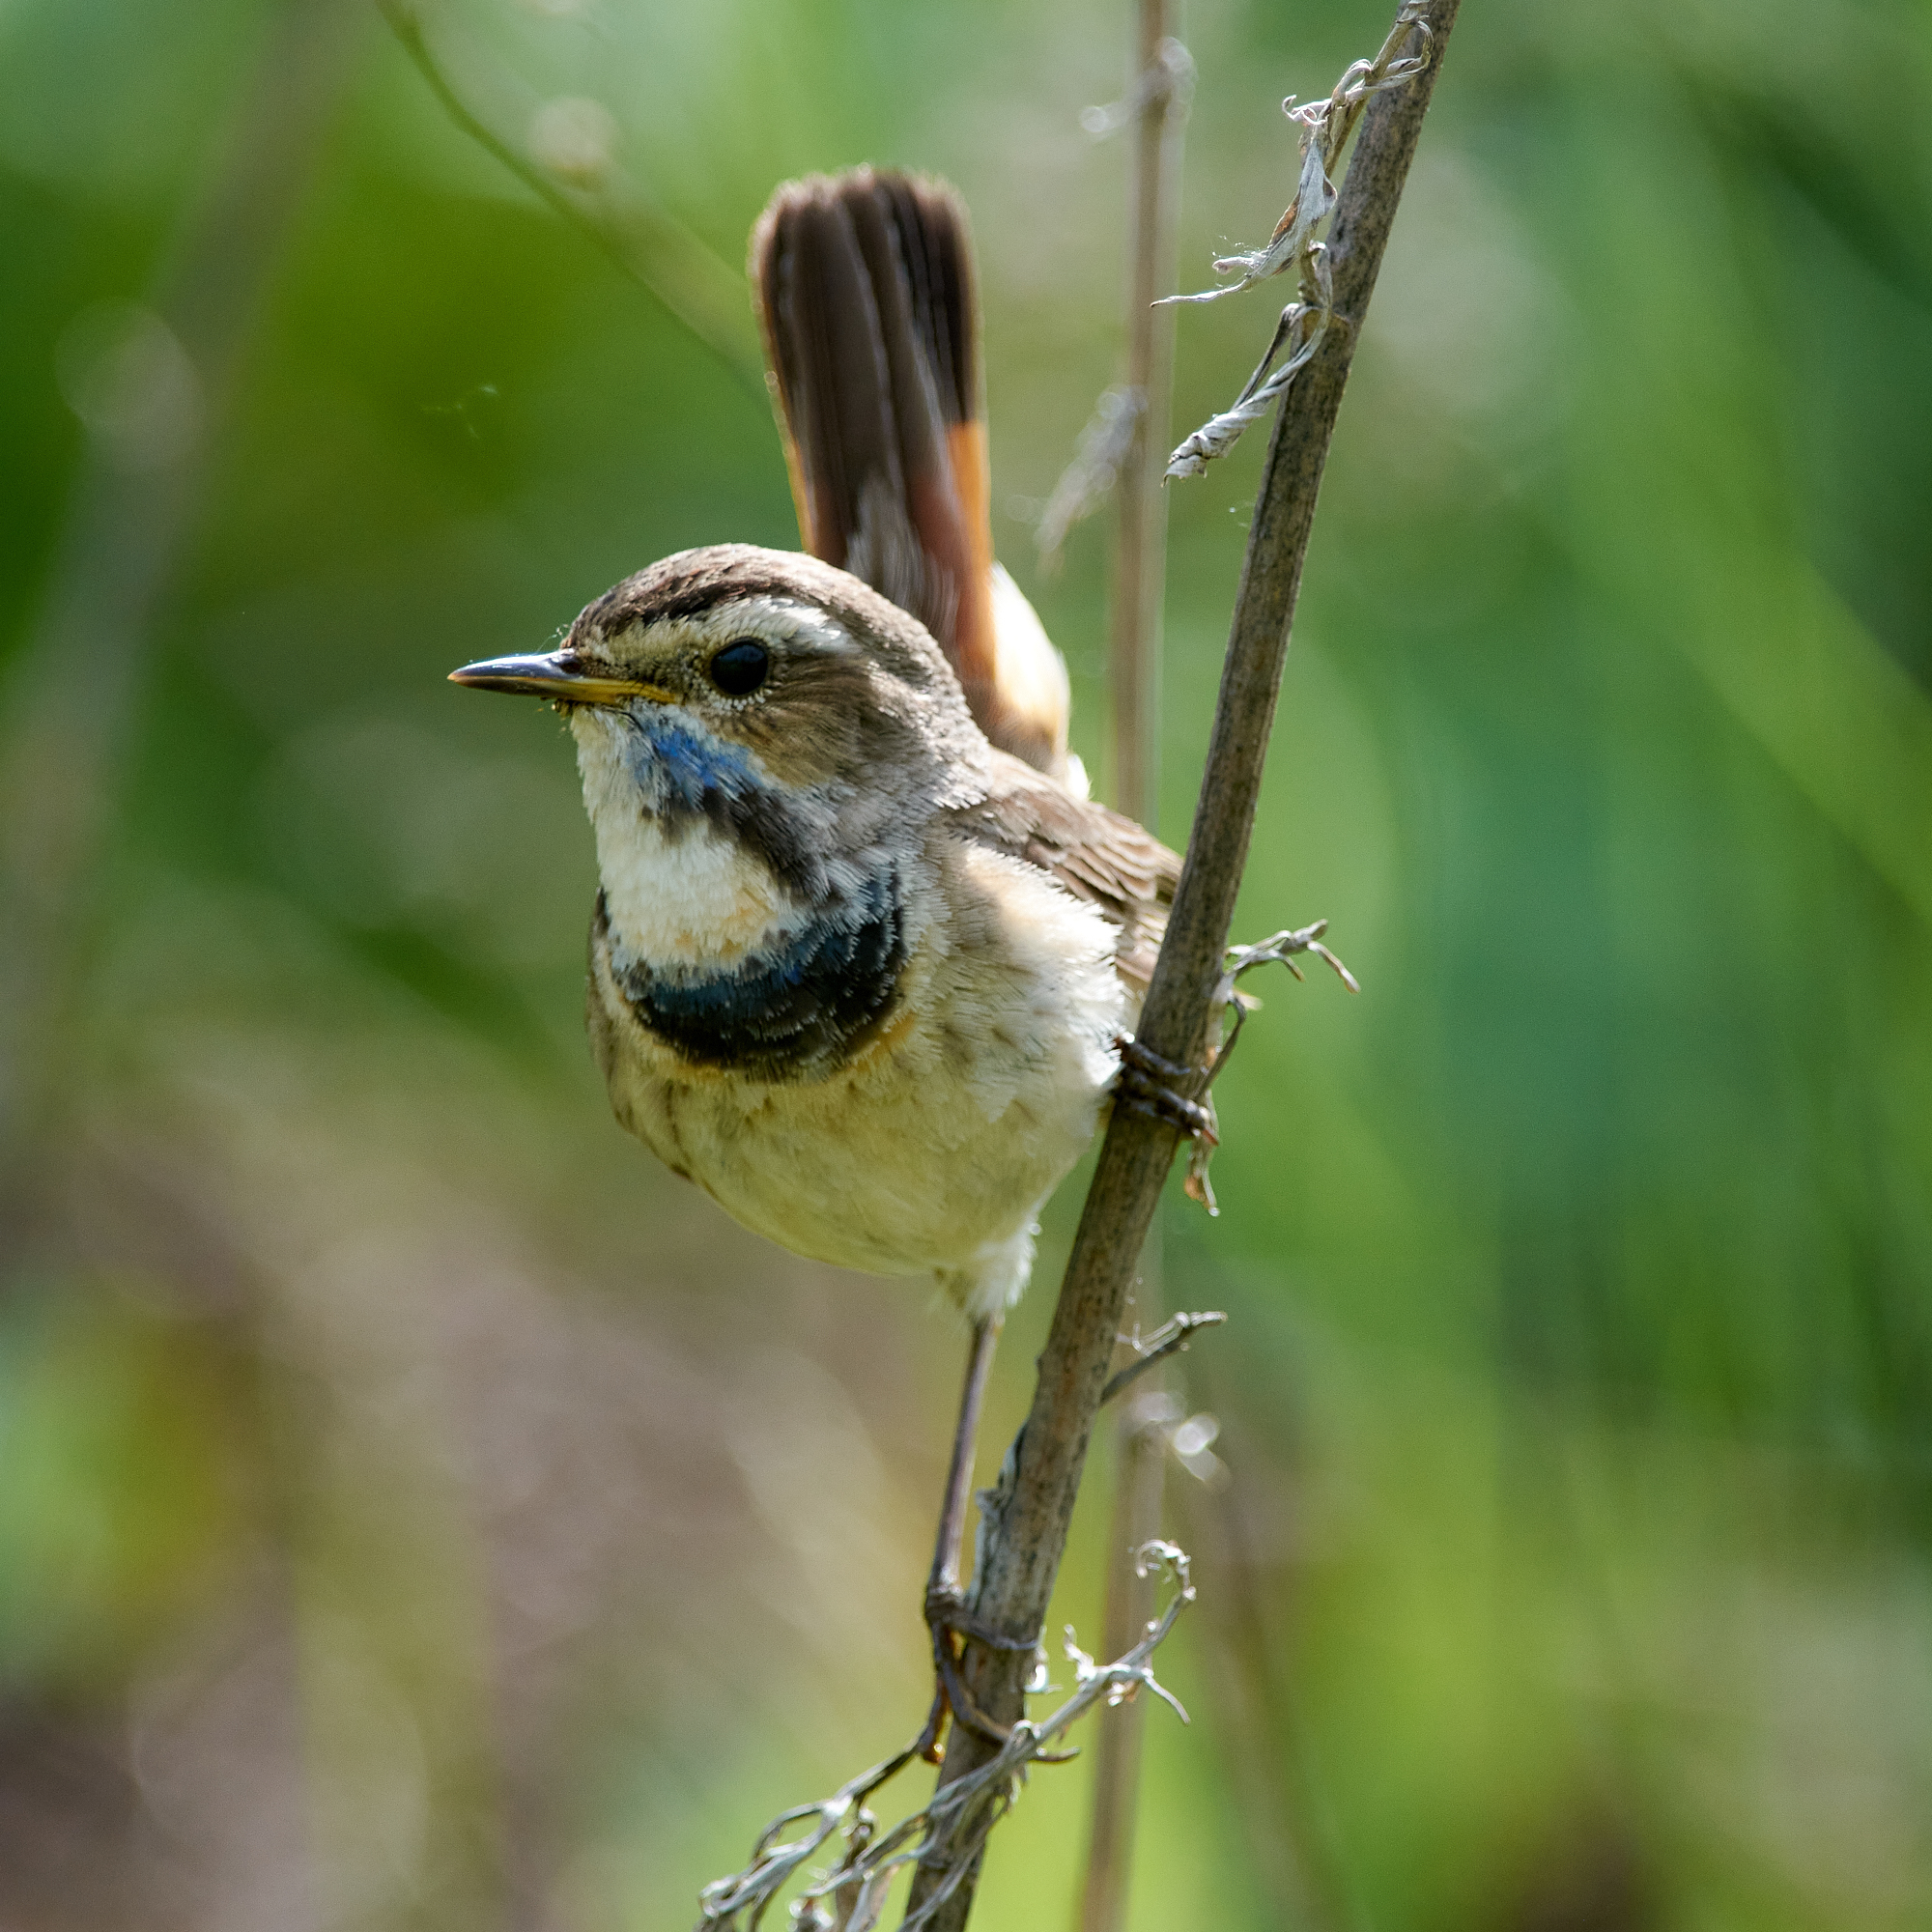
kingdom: Animalia
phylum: Chordata
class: Aves
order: Passeriformes
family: Muscicapidae
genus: Luscinia
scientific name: Luscinia svecica
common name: Bluethroat
